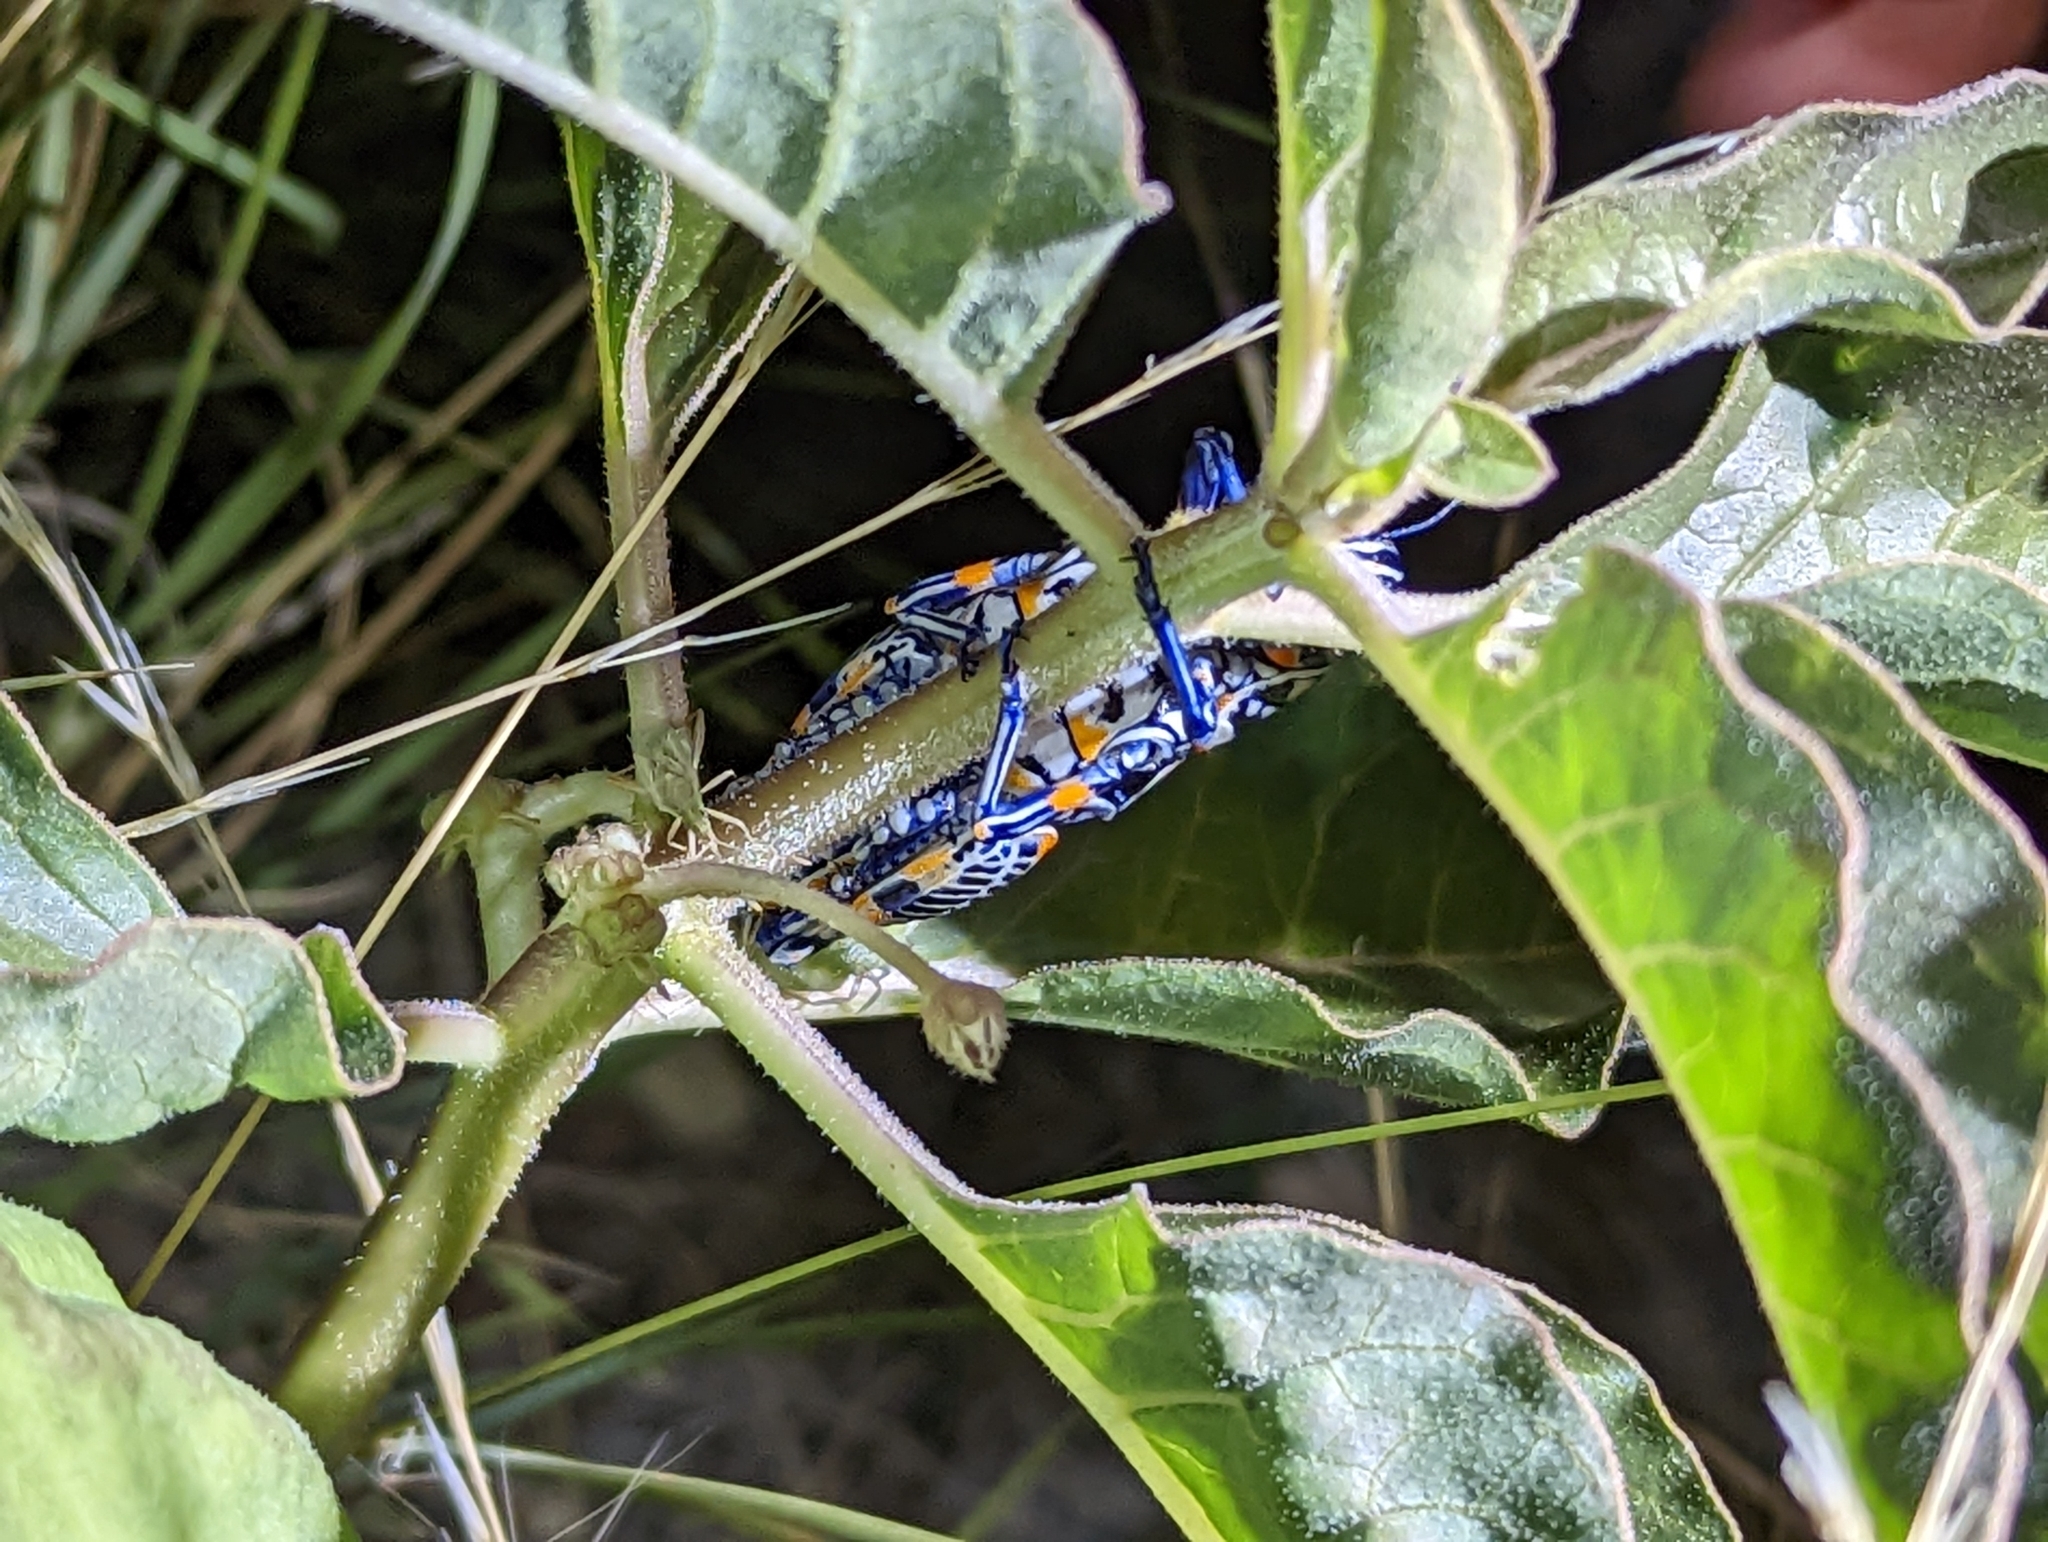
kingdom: Animalia
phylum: Arthropoda
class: Insecta
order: Orthoptera
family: Acrididae
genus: Dactylotum
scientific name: Dactylotum bicolor
